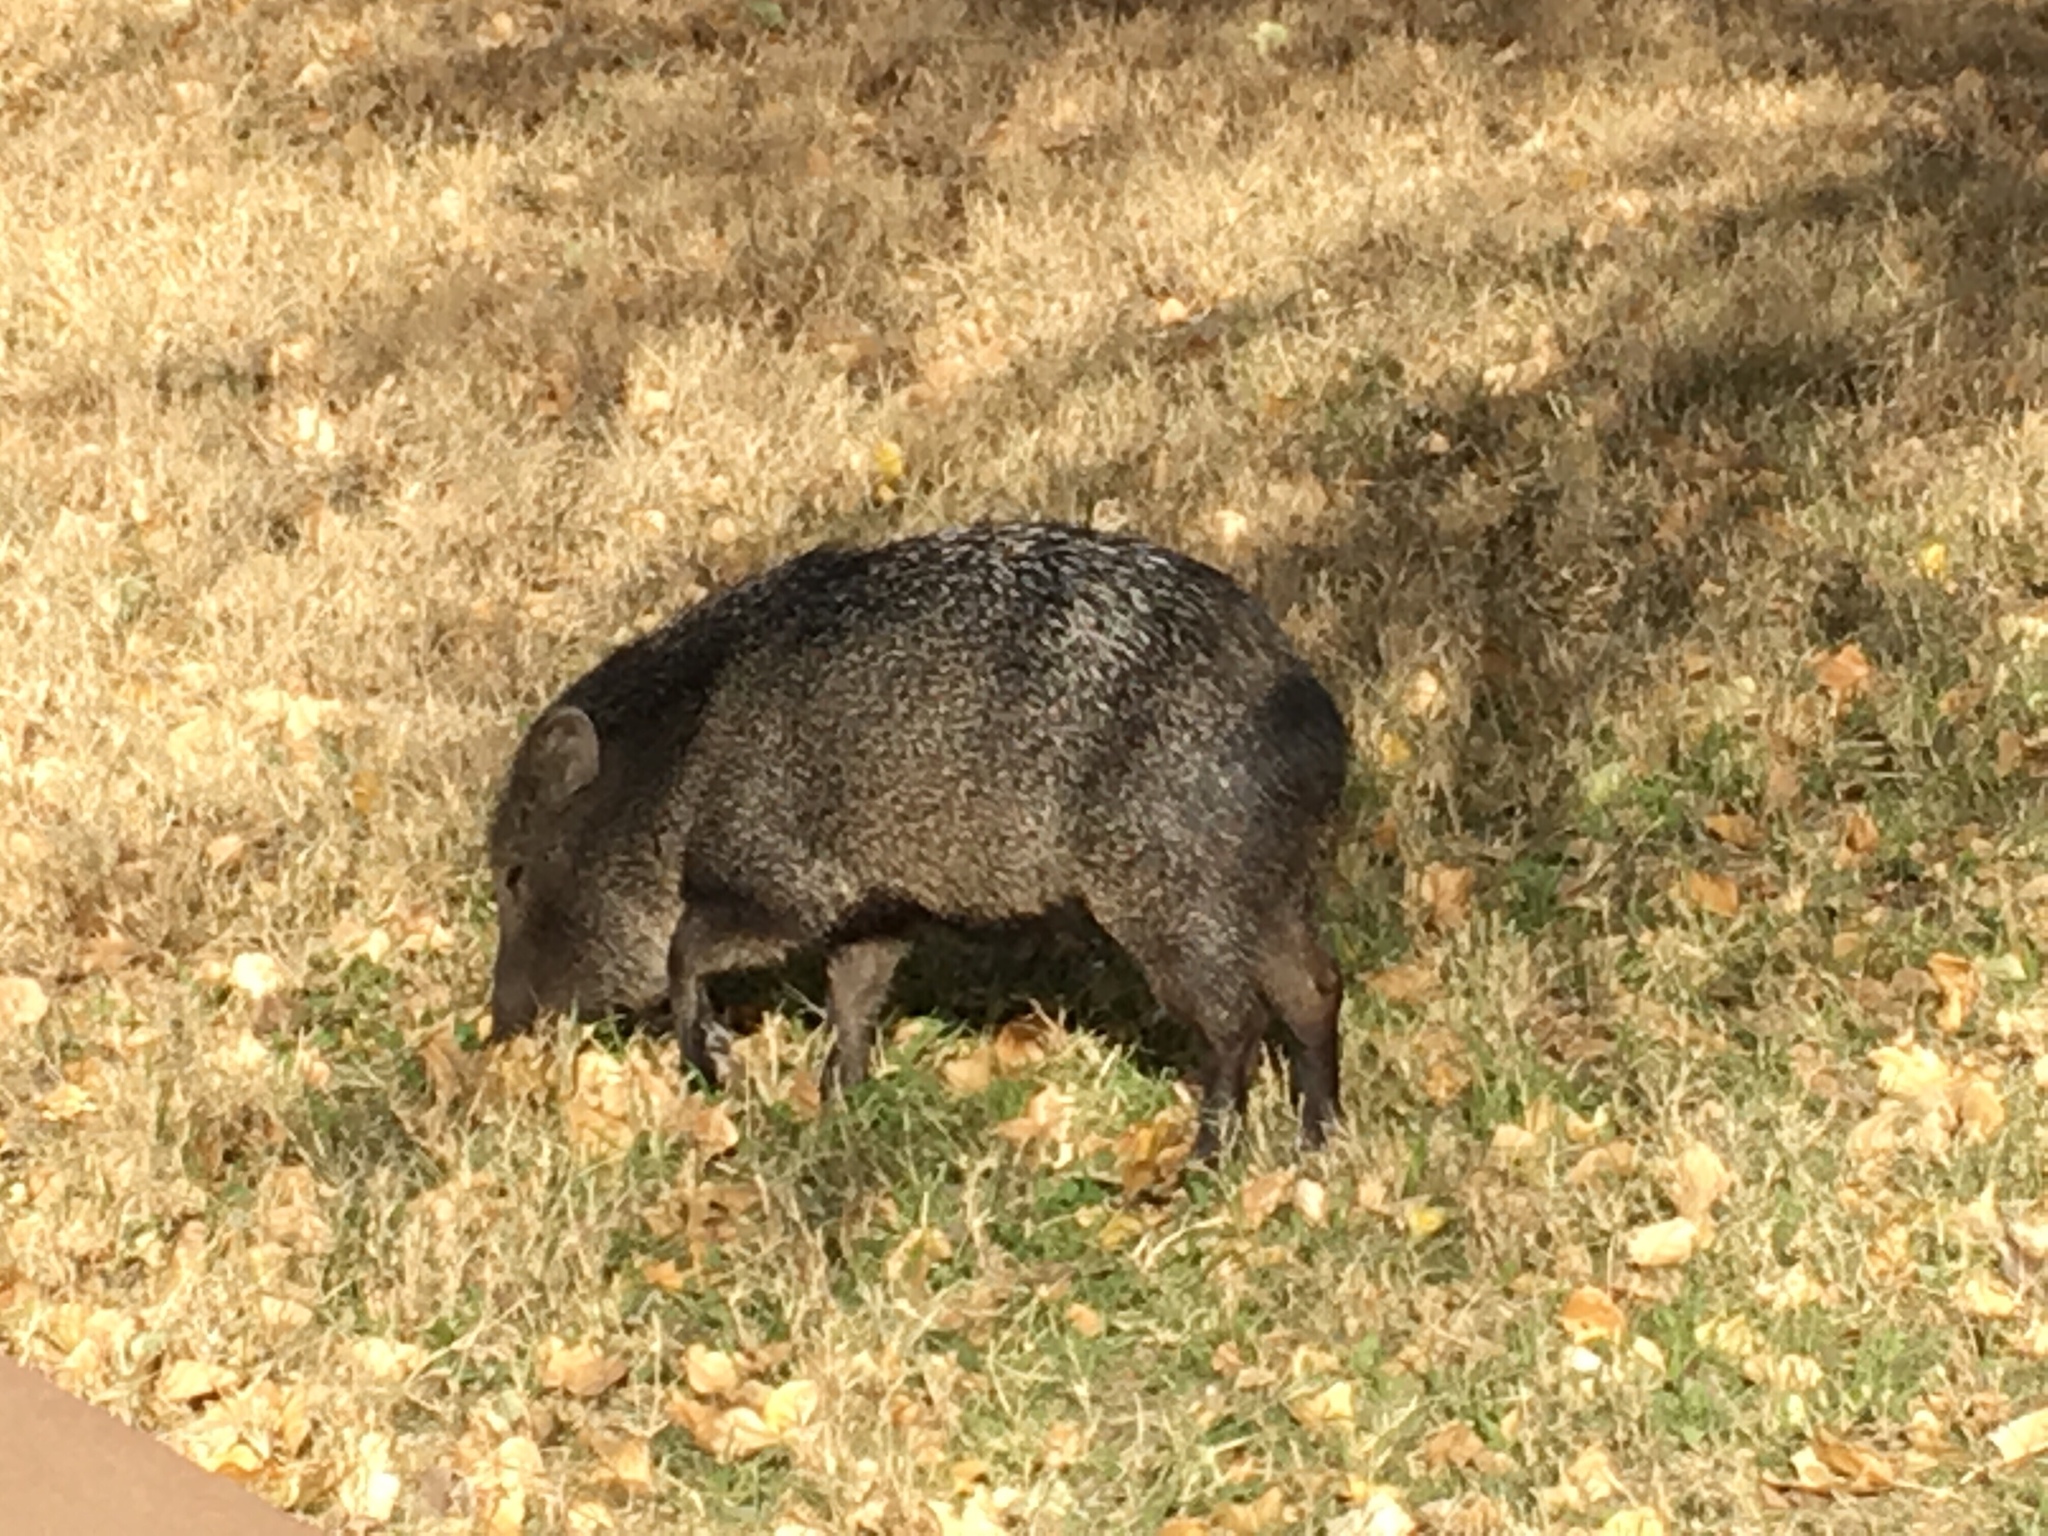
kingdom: Animalia
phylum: Chordata
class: Mammalia
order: Artiodactyla
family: Tayassuidae
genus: Pecari
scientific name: Pecari tajacu
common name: Collared peccary
